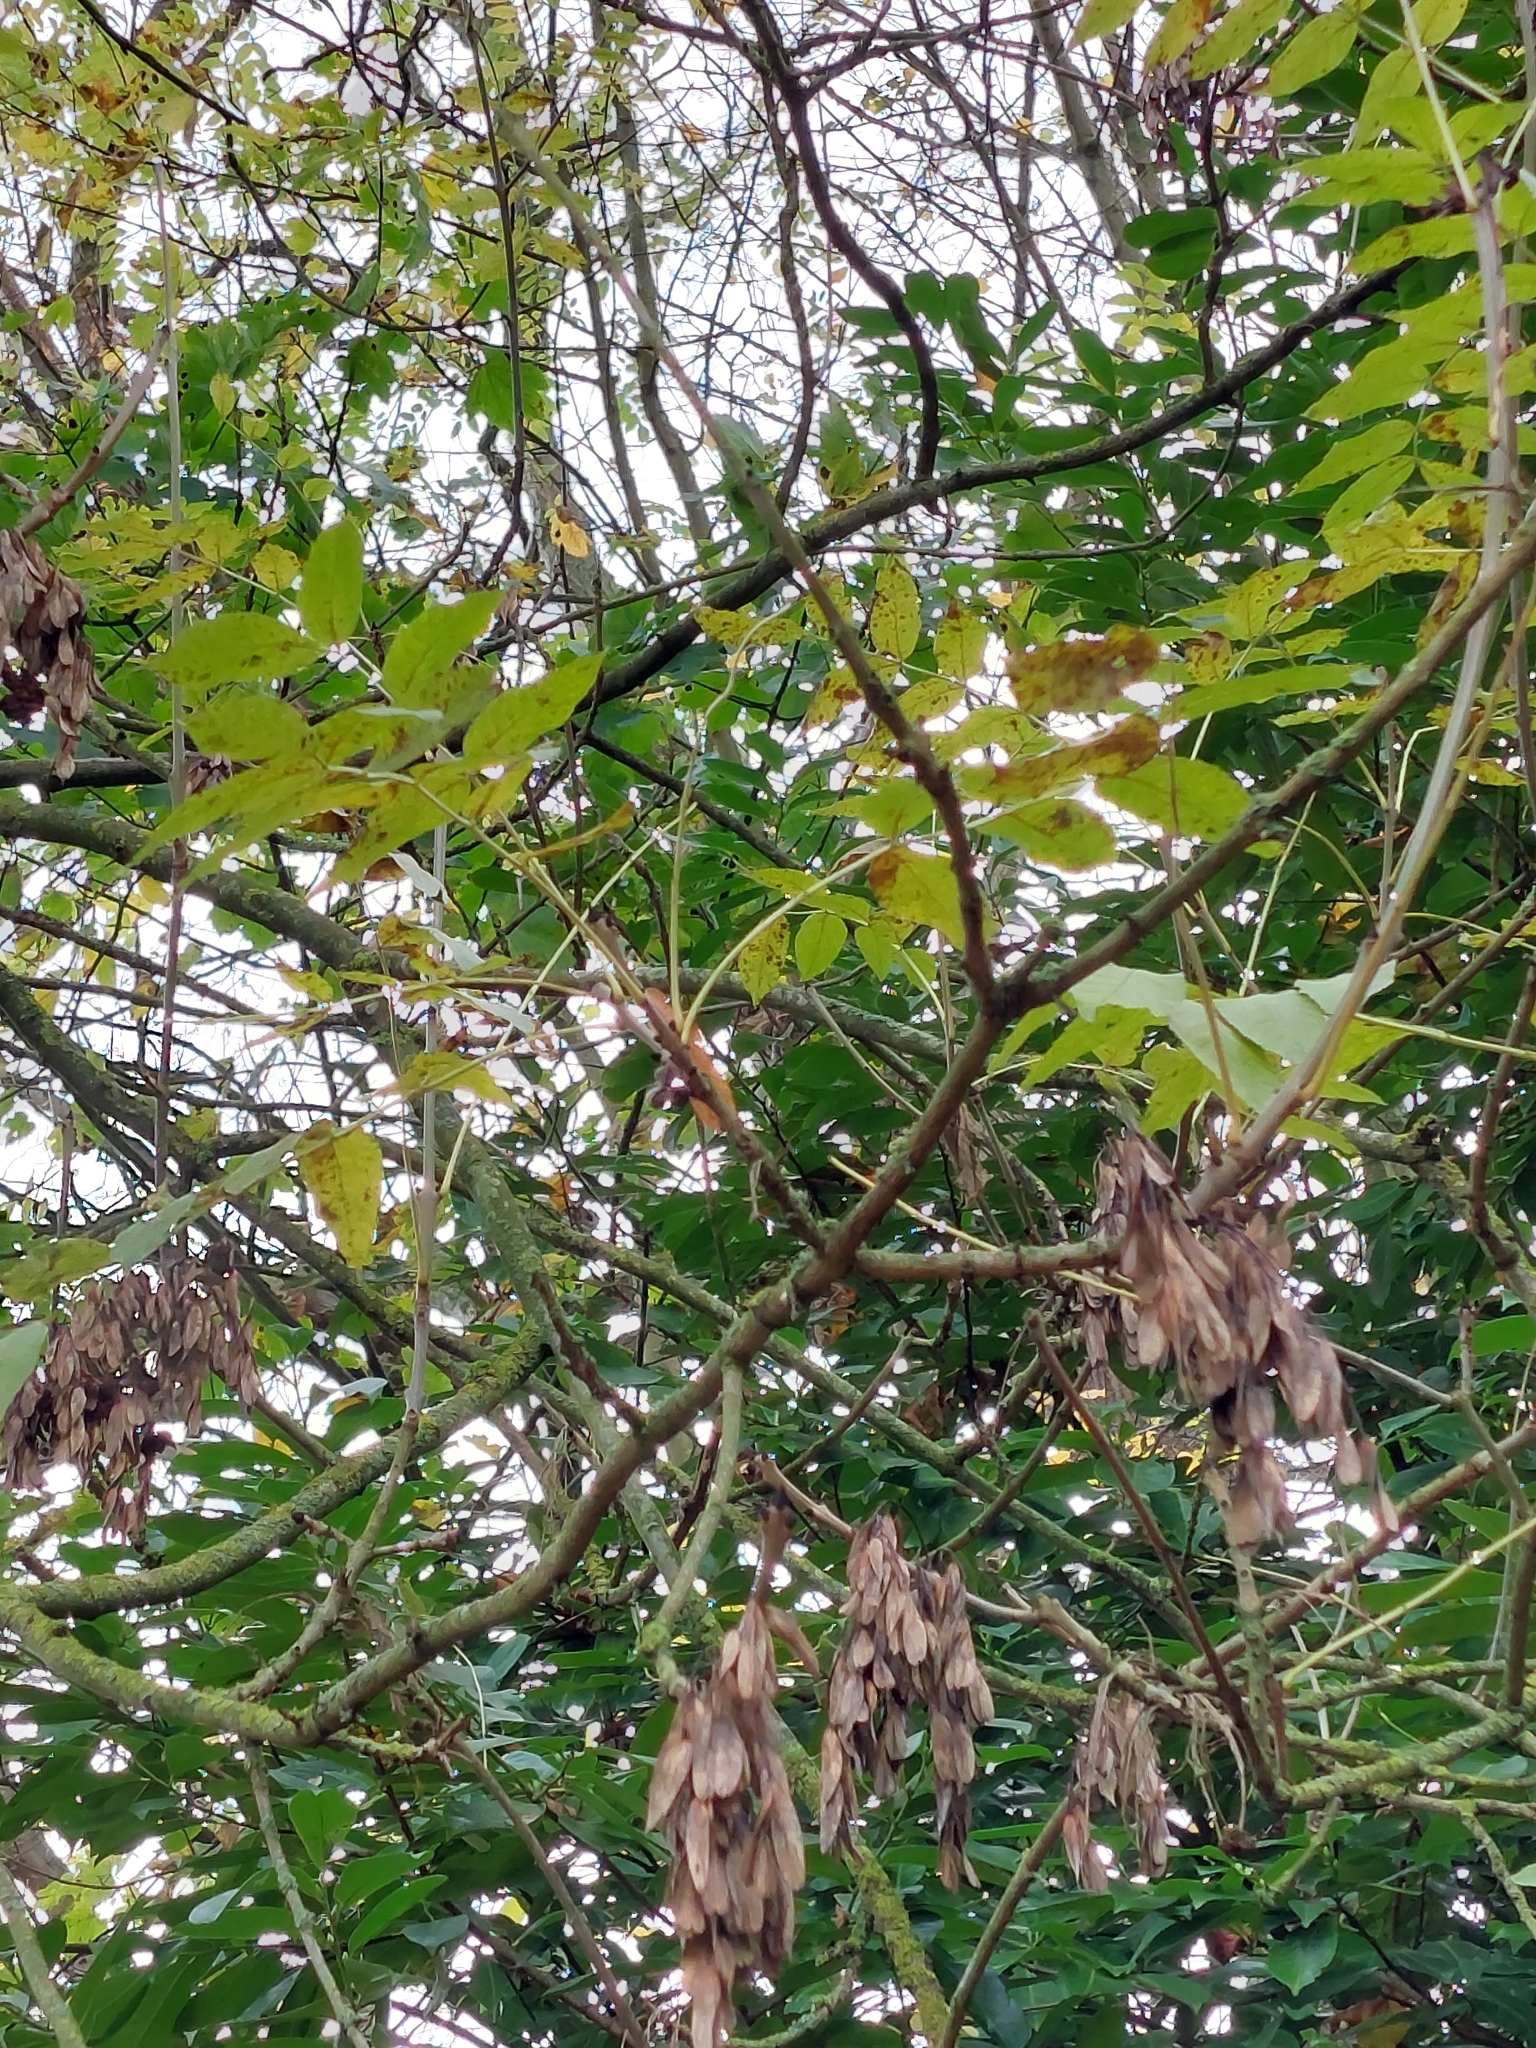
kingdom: Plantae
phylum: Tracheophyta
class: Magnoliopsida
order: Lamiales
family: Oleaceae
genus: Fraxinus
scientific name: Fraxinus excelsior
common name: European ash
